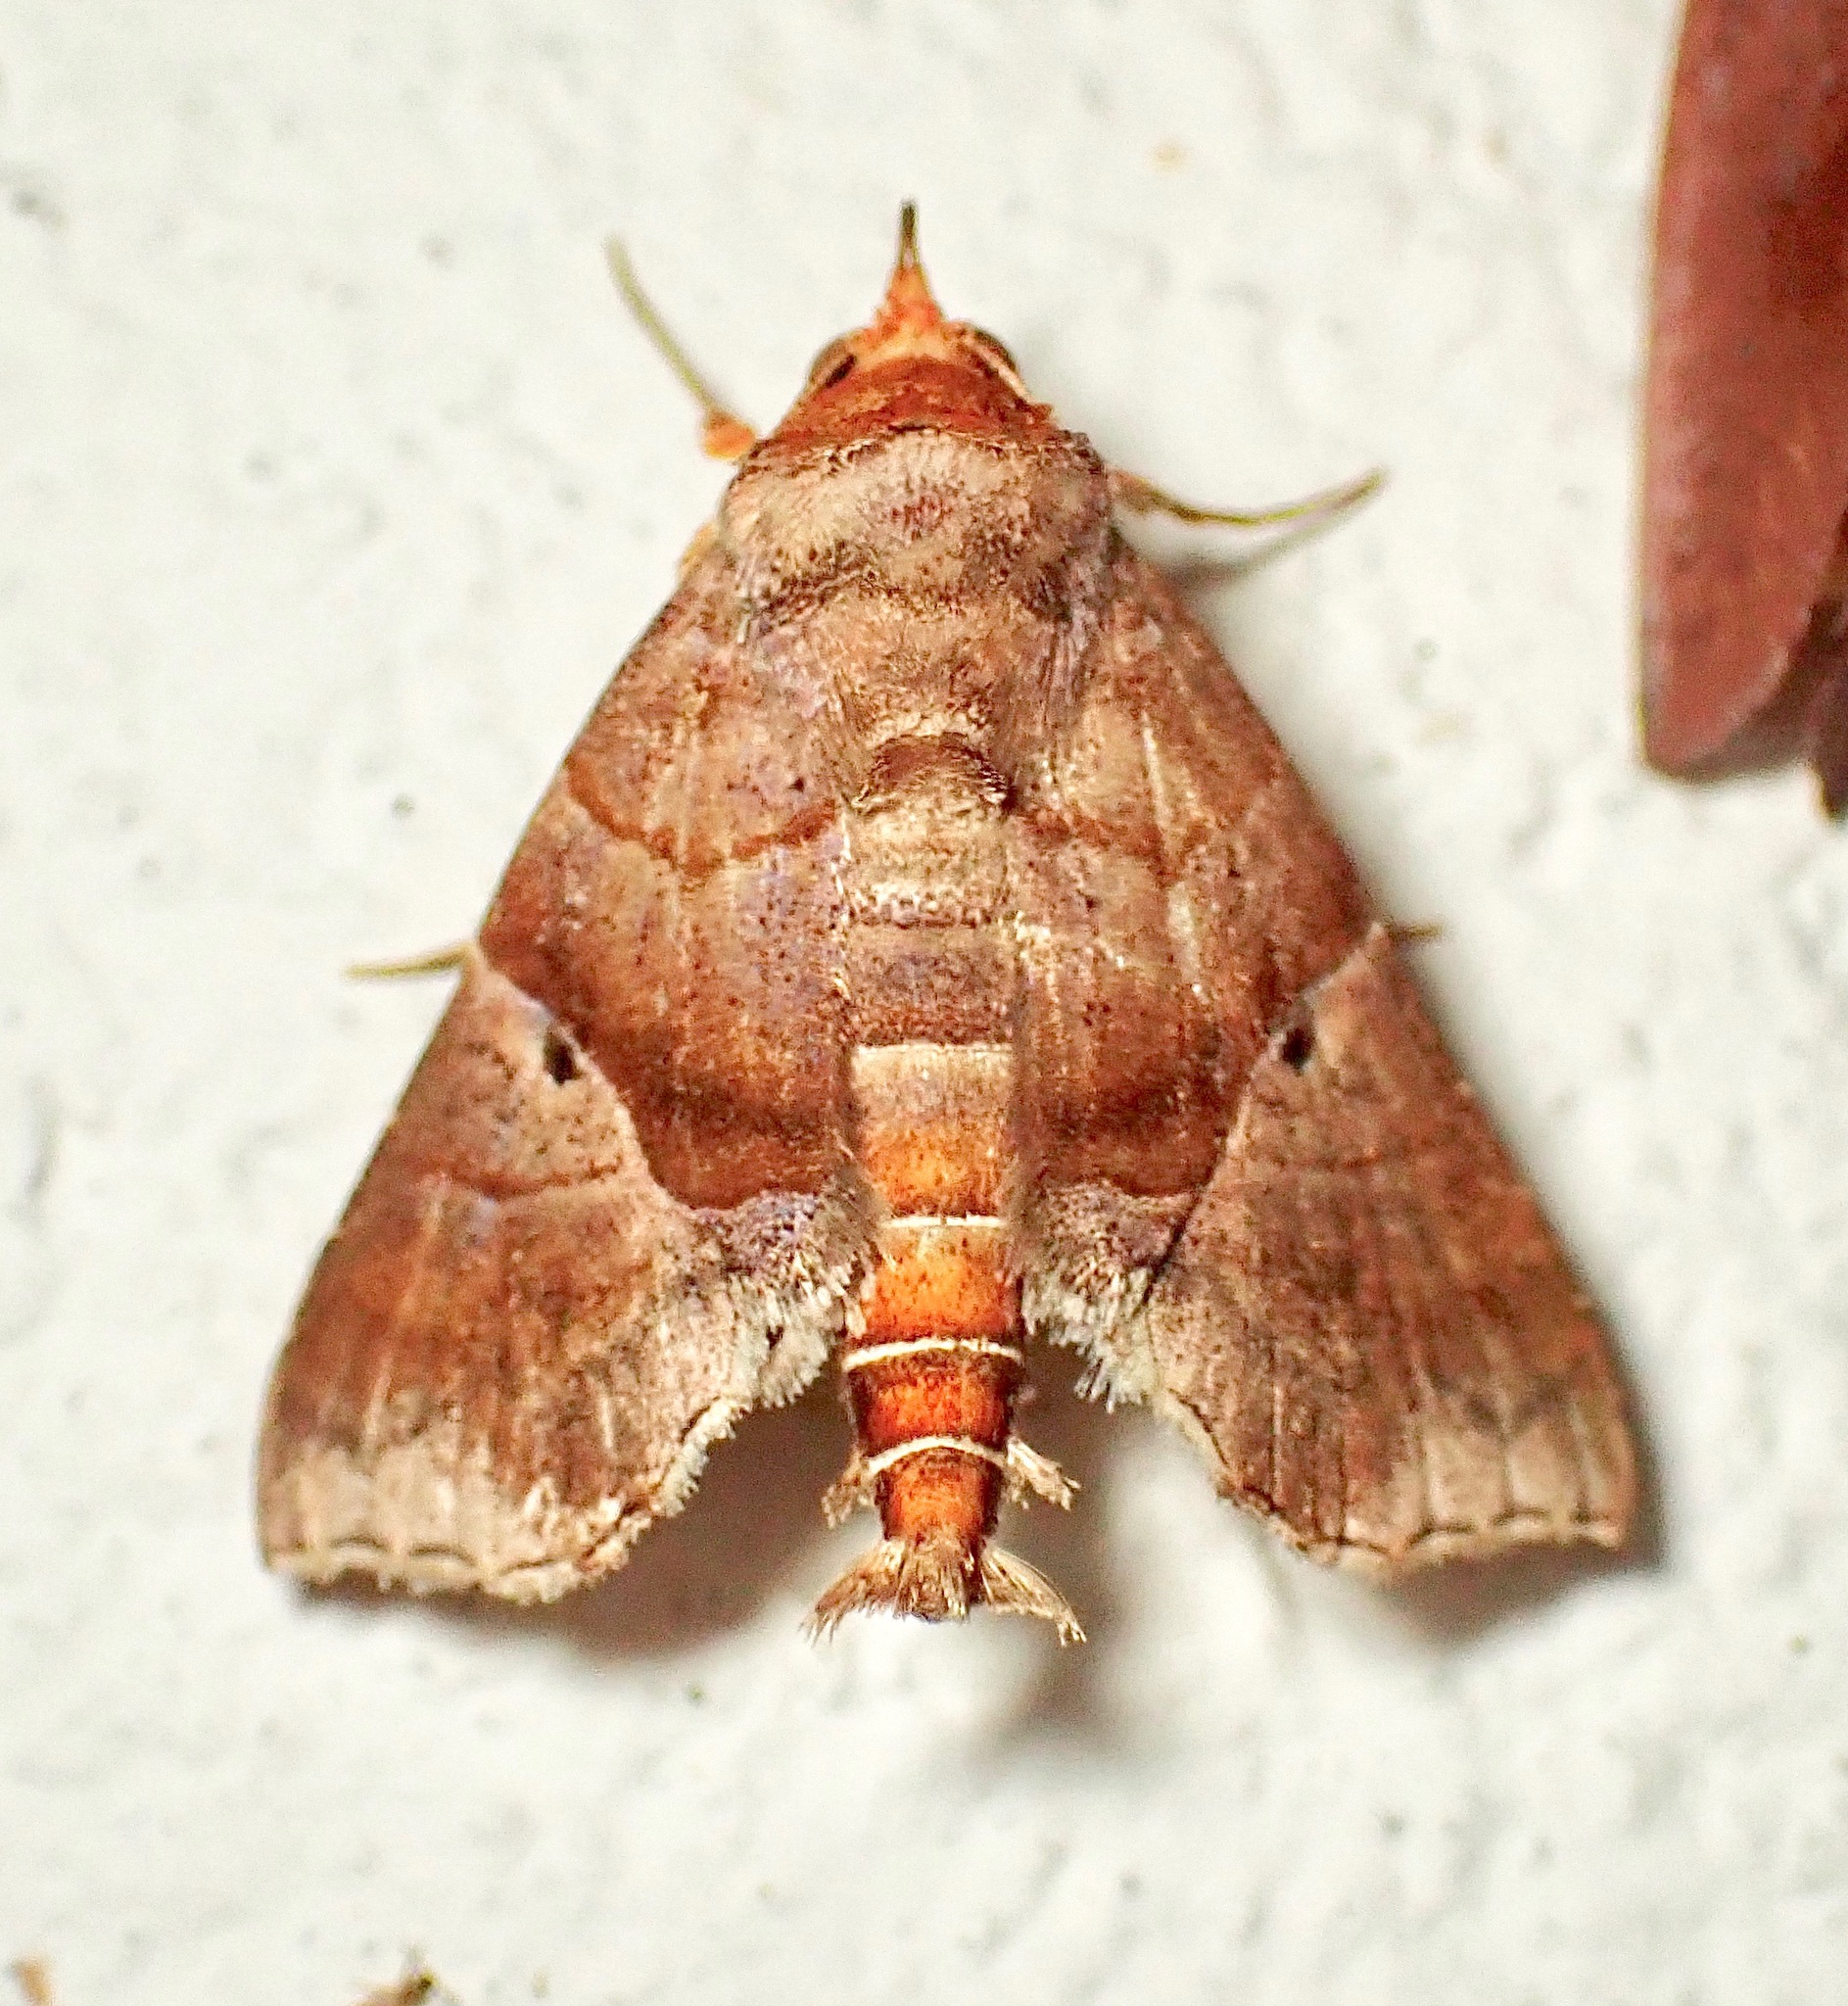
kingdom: Animalia
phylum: Arthropoda
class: Insecta
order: Lepidoptera
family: Erebidae
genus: Radara
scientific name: Radara nealcesalis
